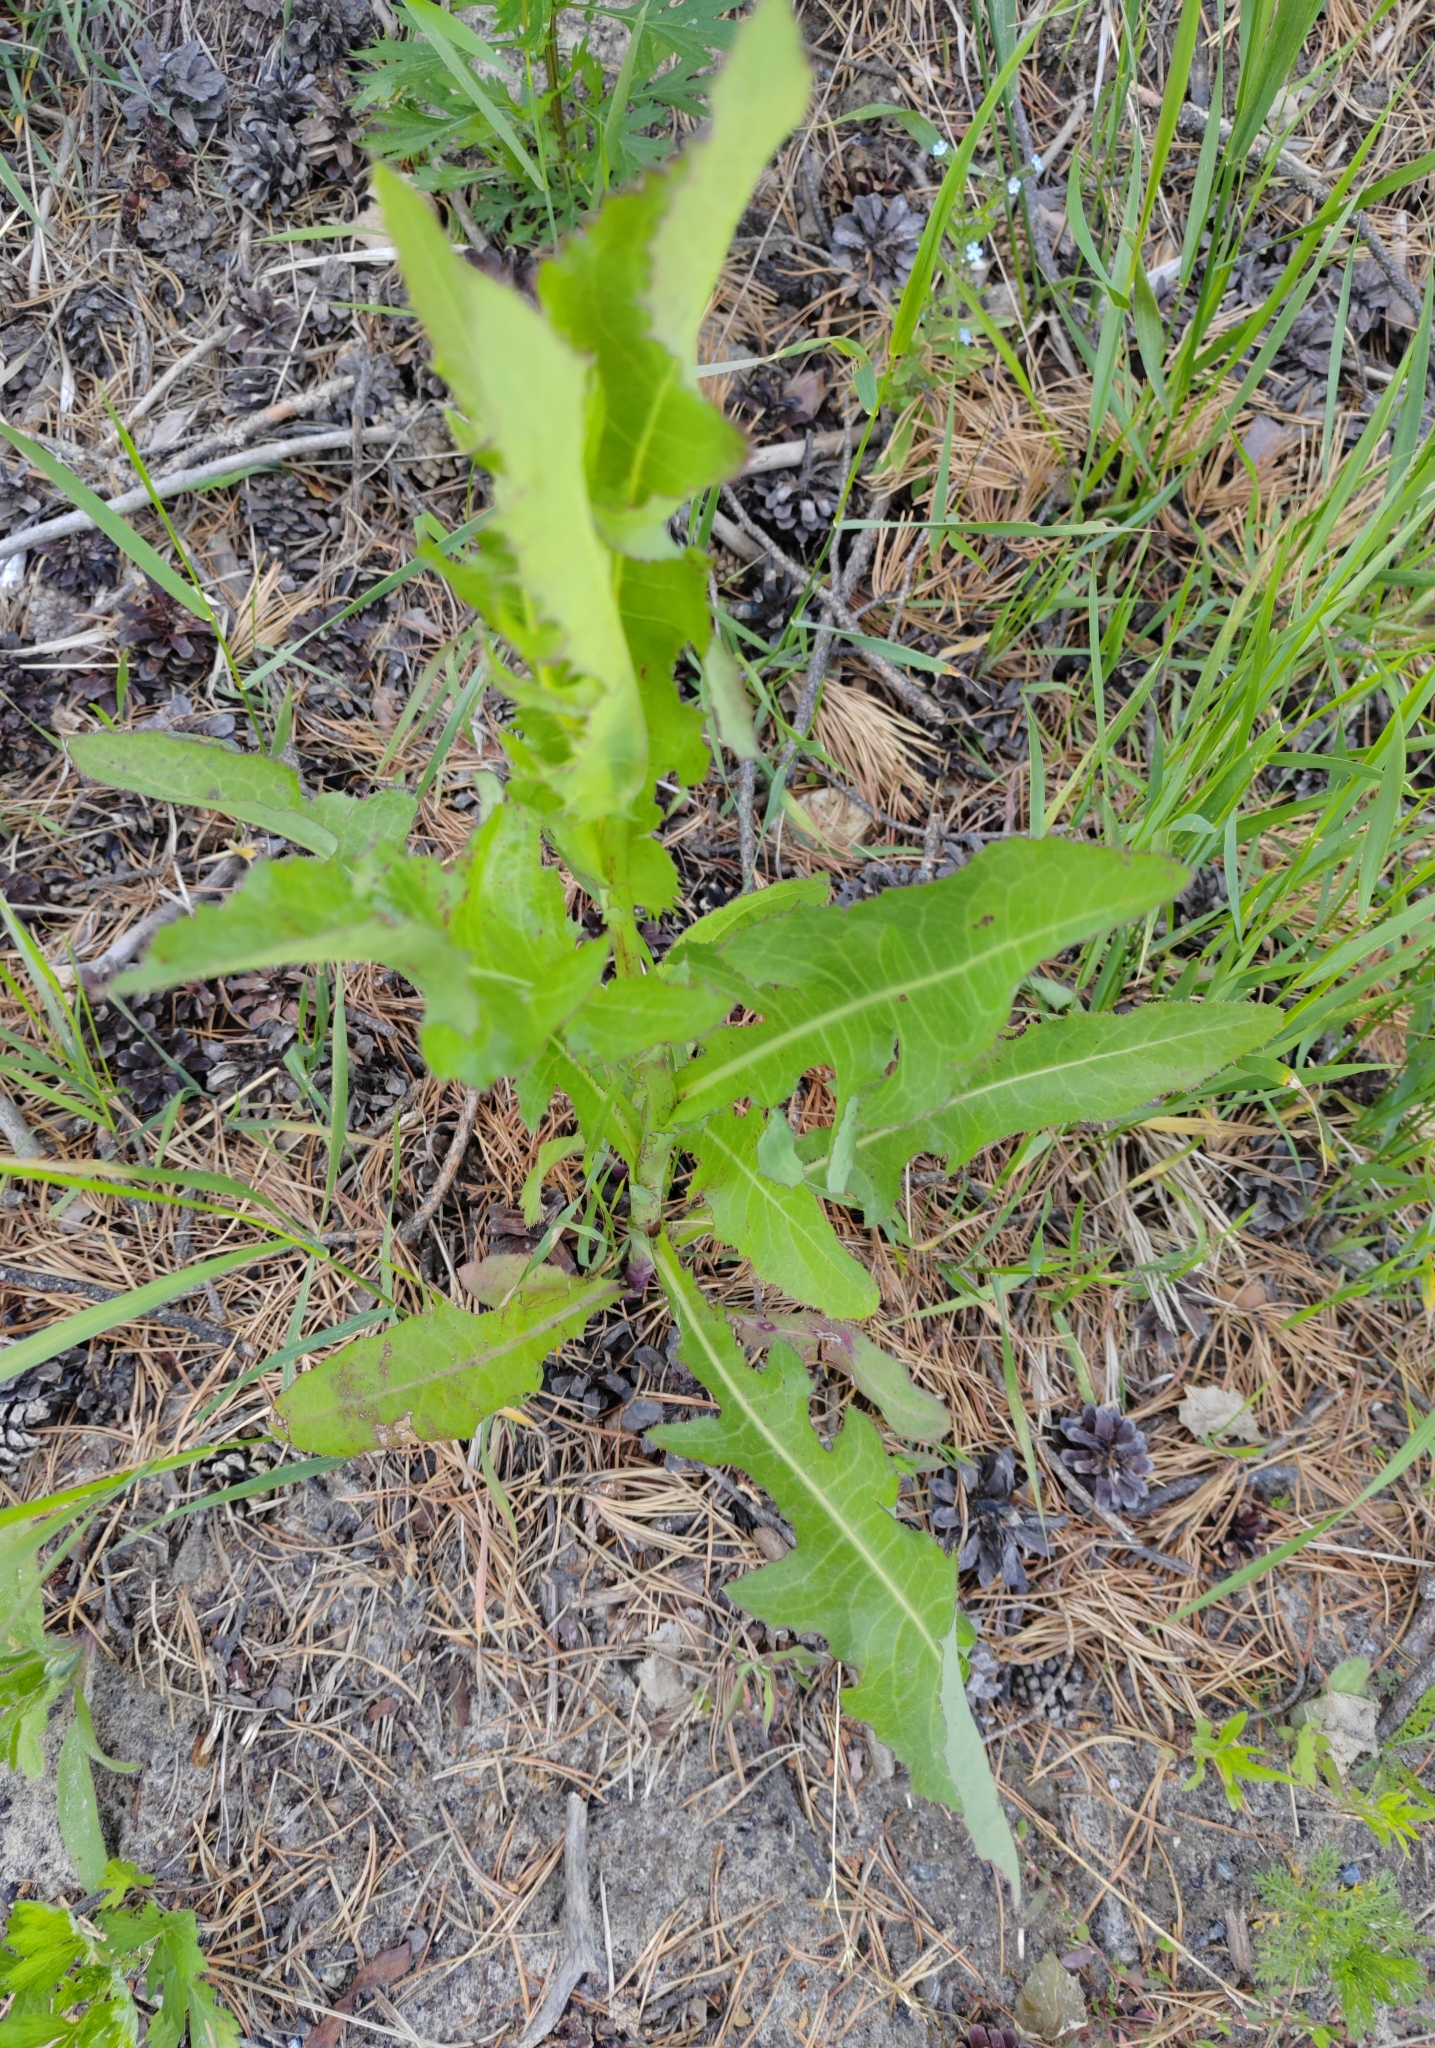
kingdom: Plantae
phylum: Tracheophyta
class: Magnoliopsida
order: Asterales
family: Asteraceae
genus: Sonchus
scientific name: Sonchus arvensis
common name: Perennial sow-thistle
